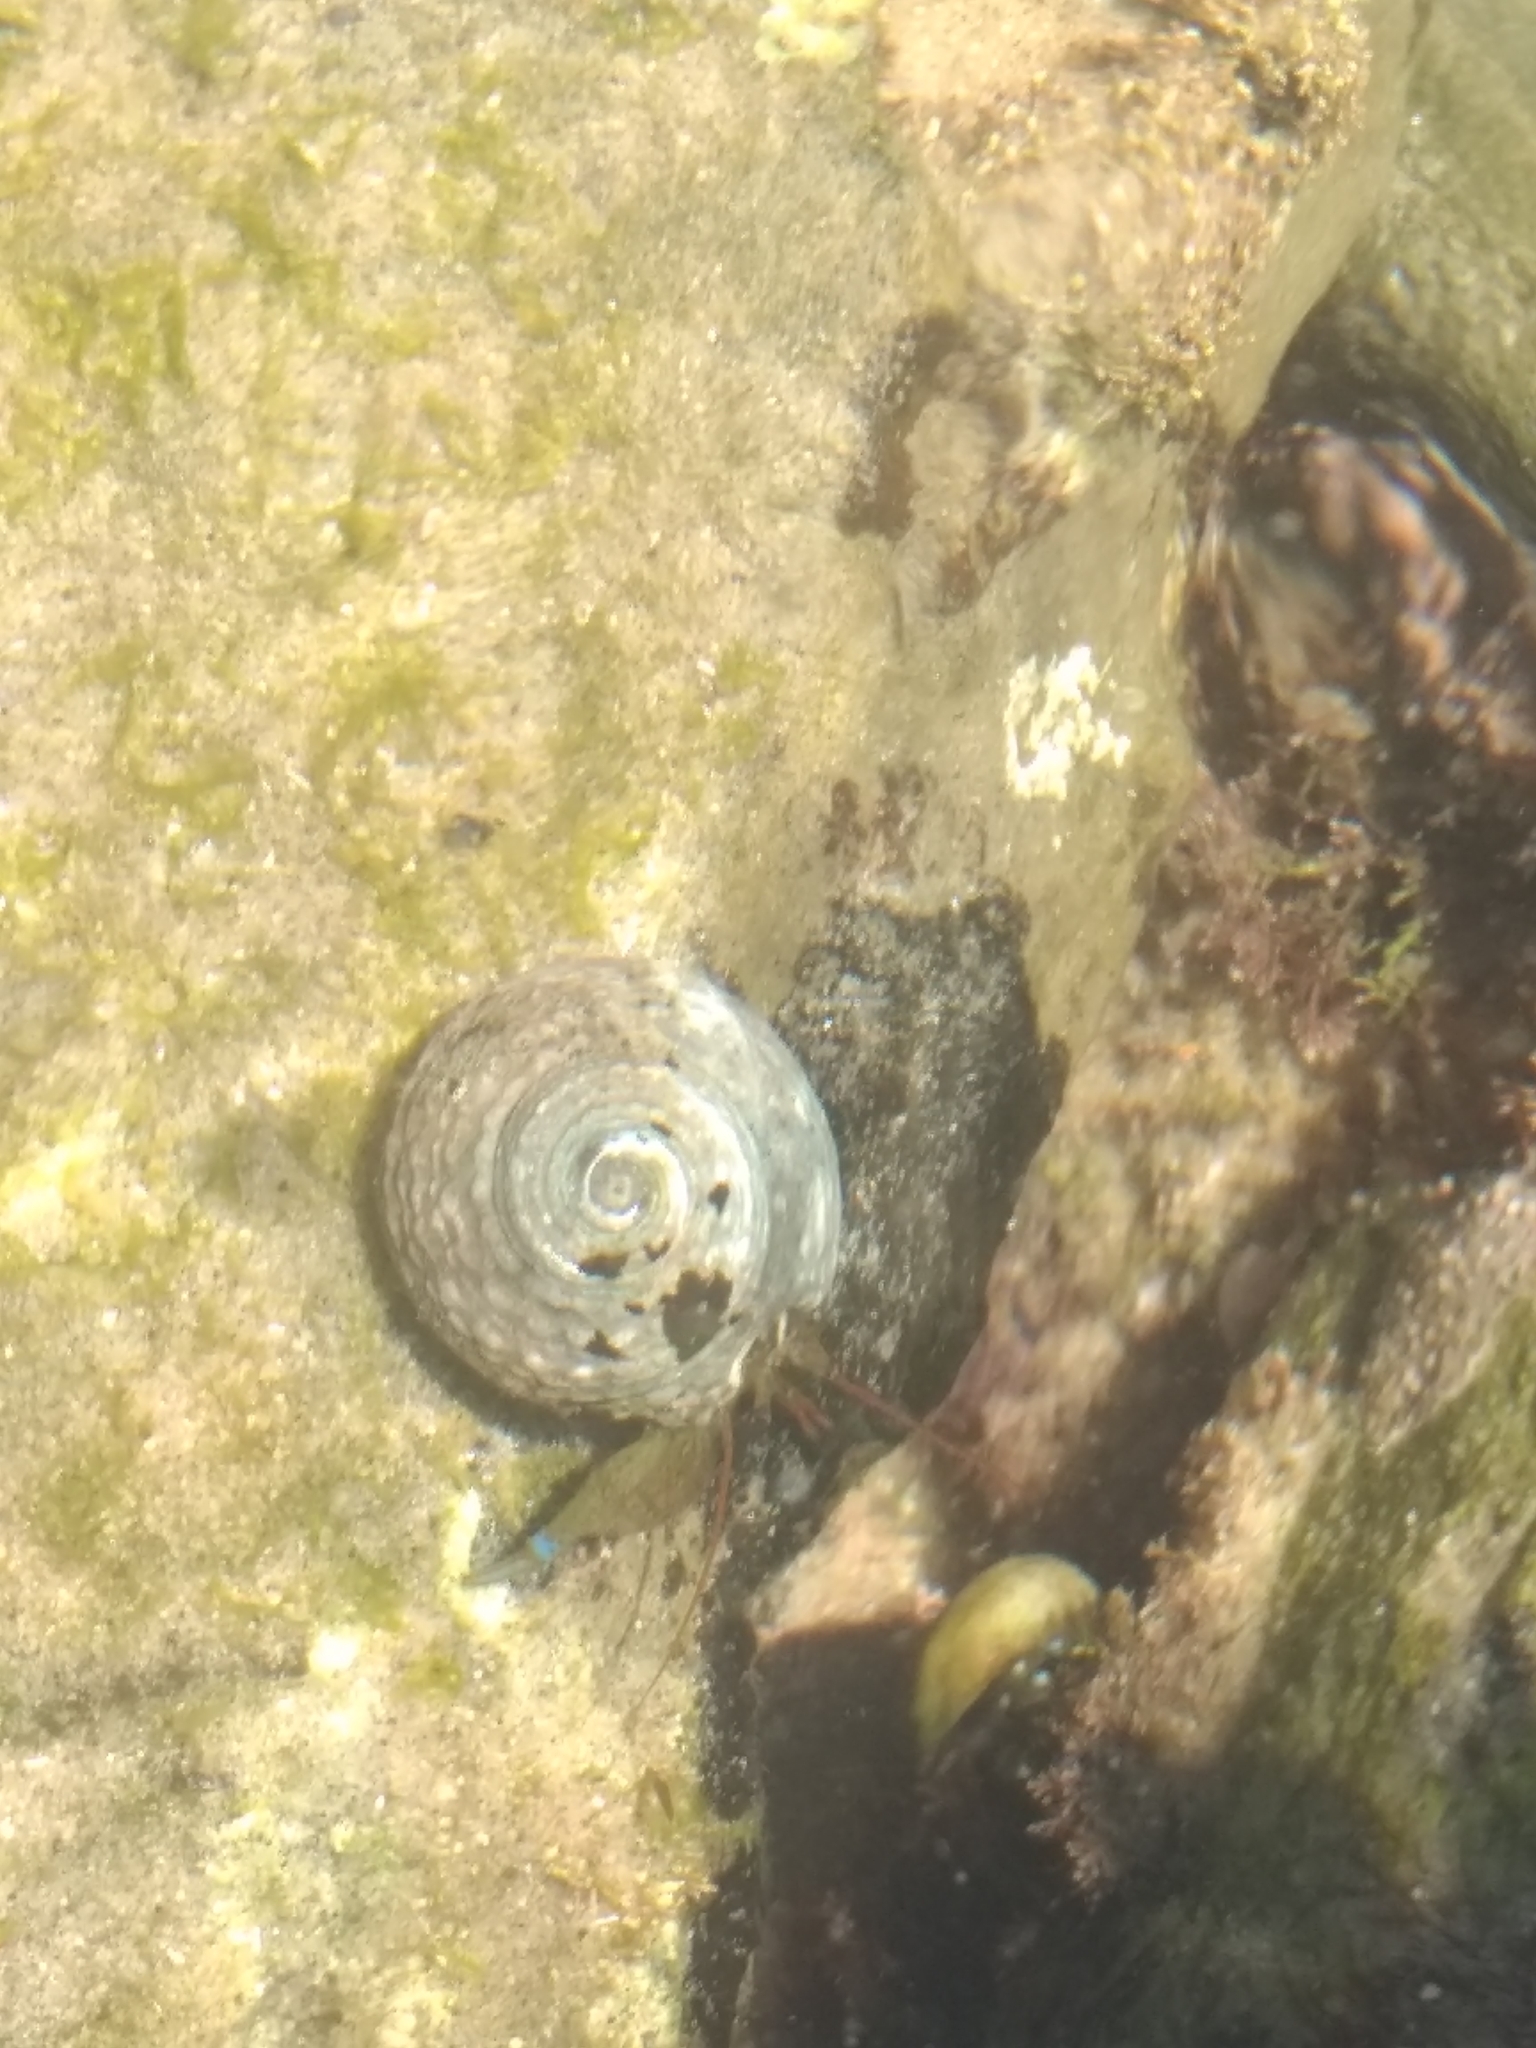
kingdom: Animalia
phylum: Arthropoda
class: Malacostraca
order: Decapoda
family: Paguridae
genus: Pagurus
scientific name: Pagurus samuelis
